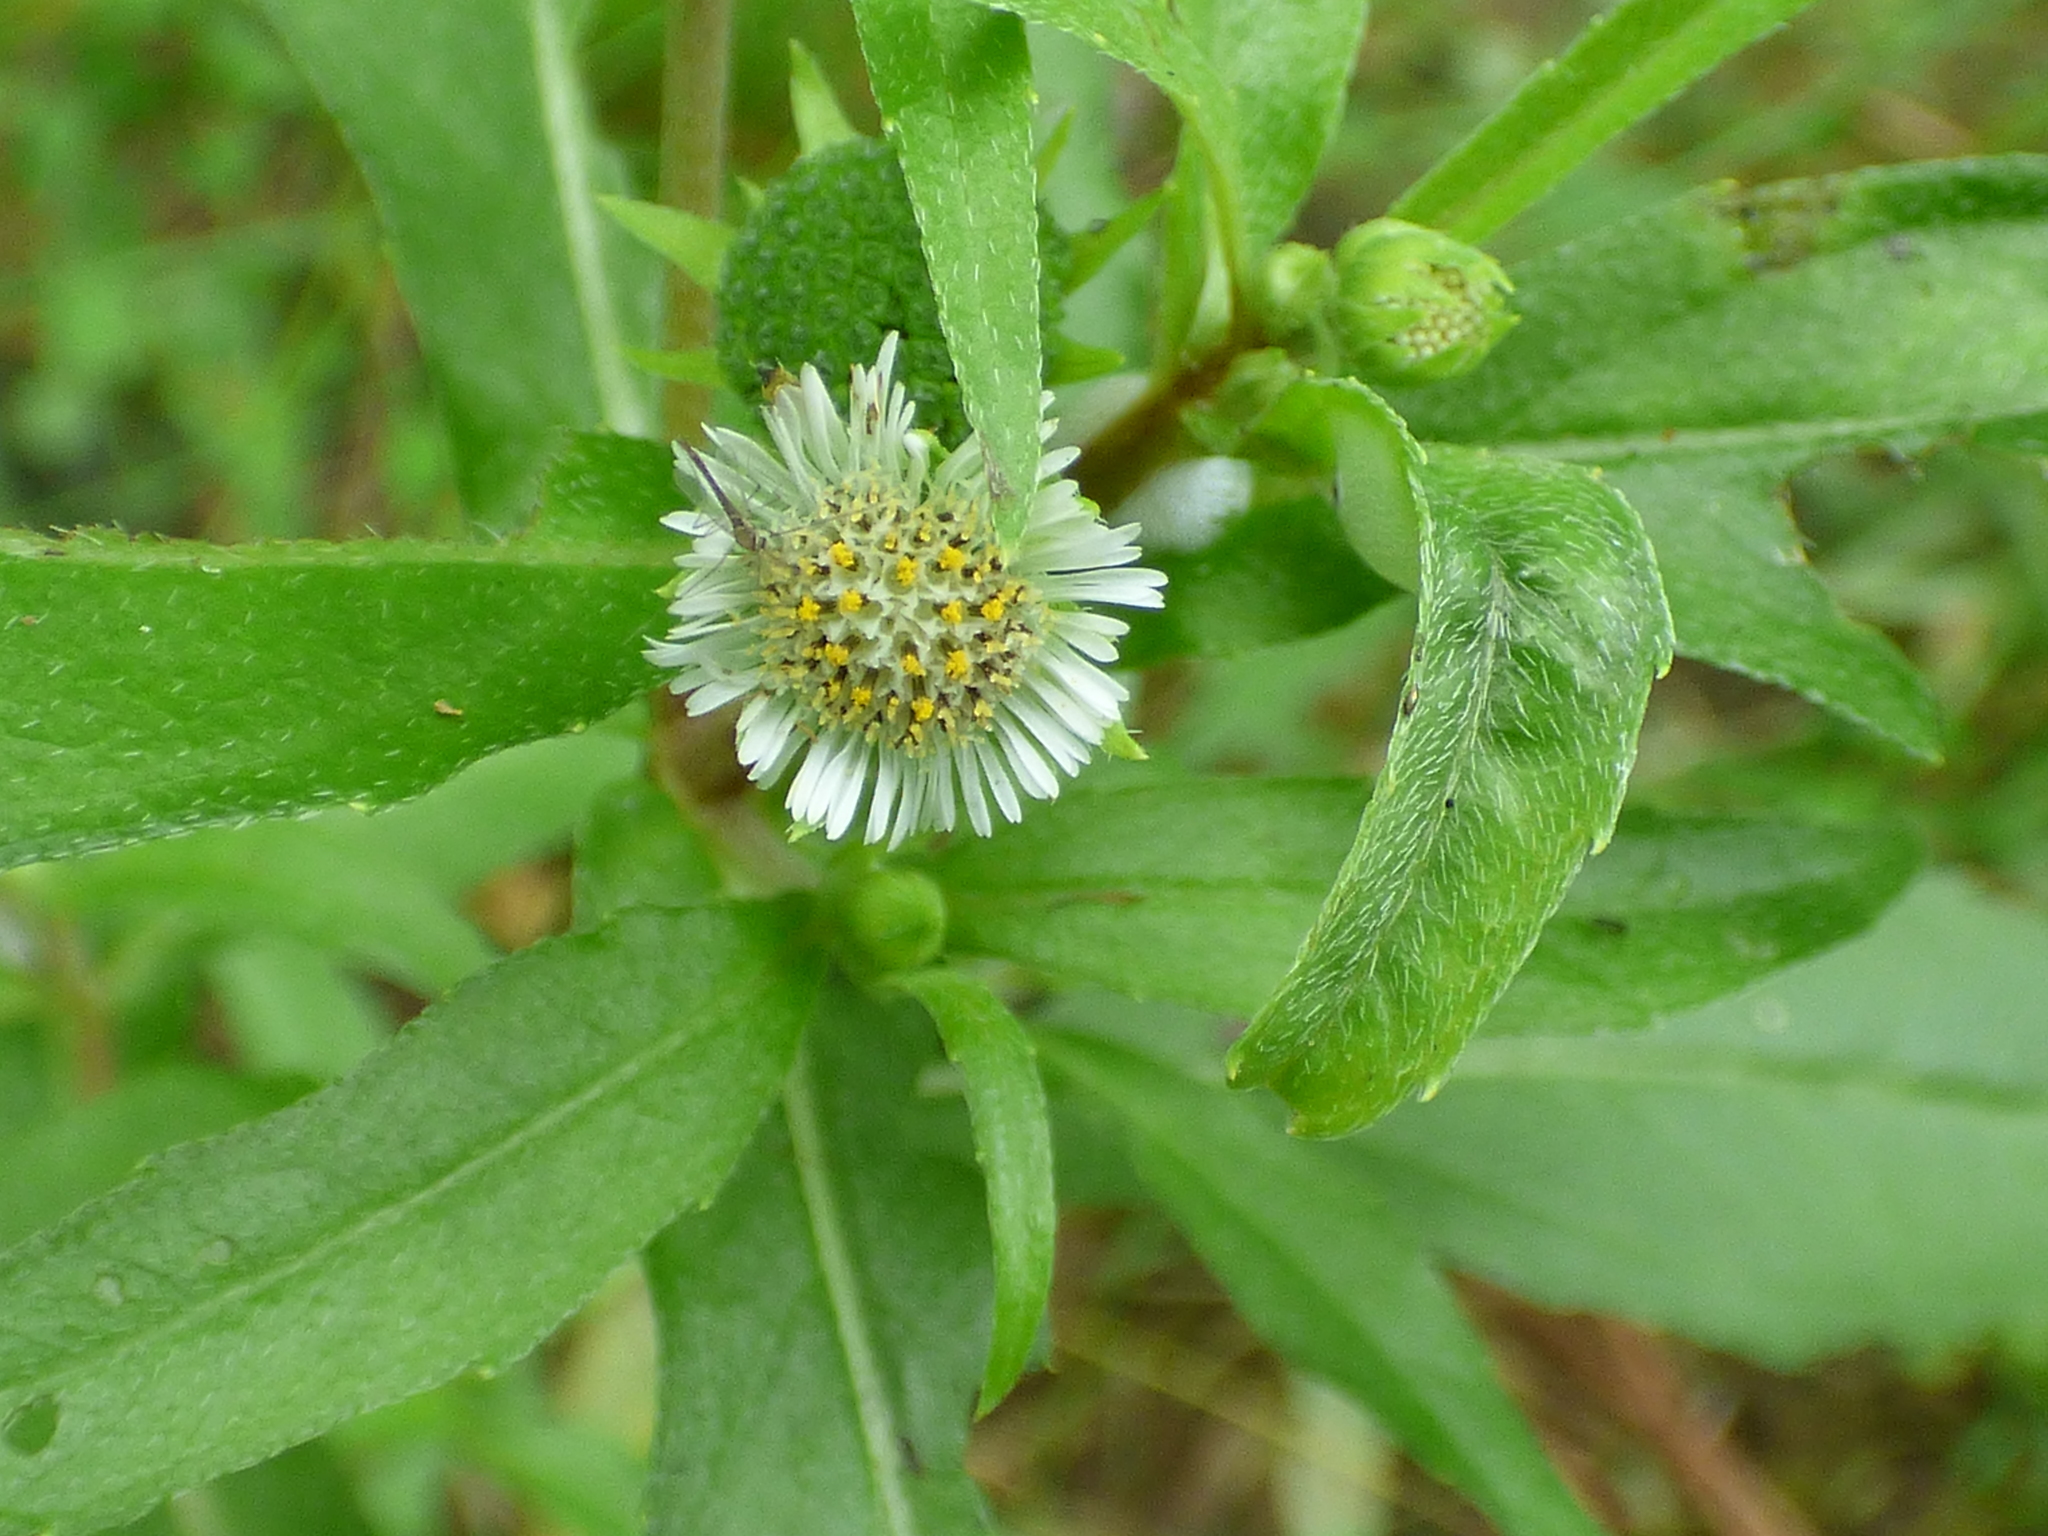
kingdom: Plantae
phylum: Tracheophyta
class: Magnoliopsida
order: Asterales
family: Asteraceae
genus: Eclipta
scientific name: Eclipta prostrata
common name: False daisy
